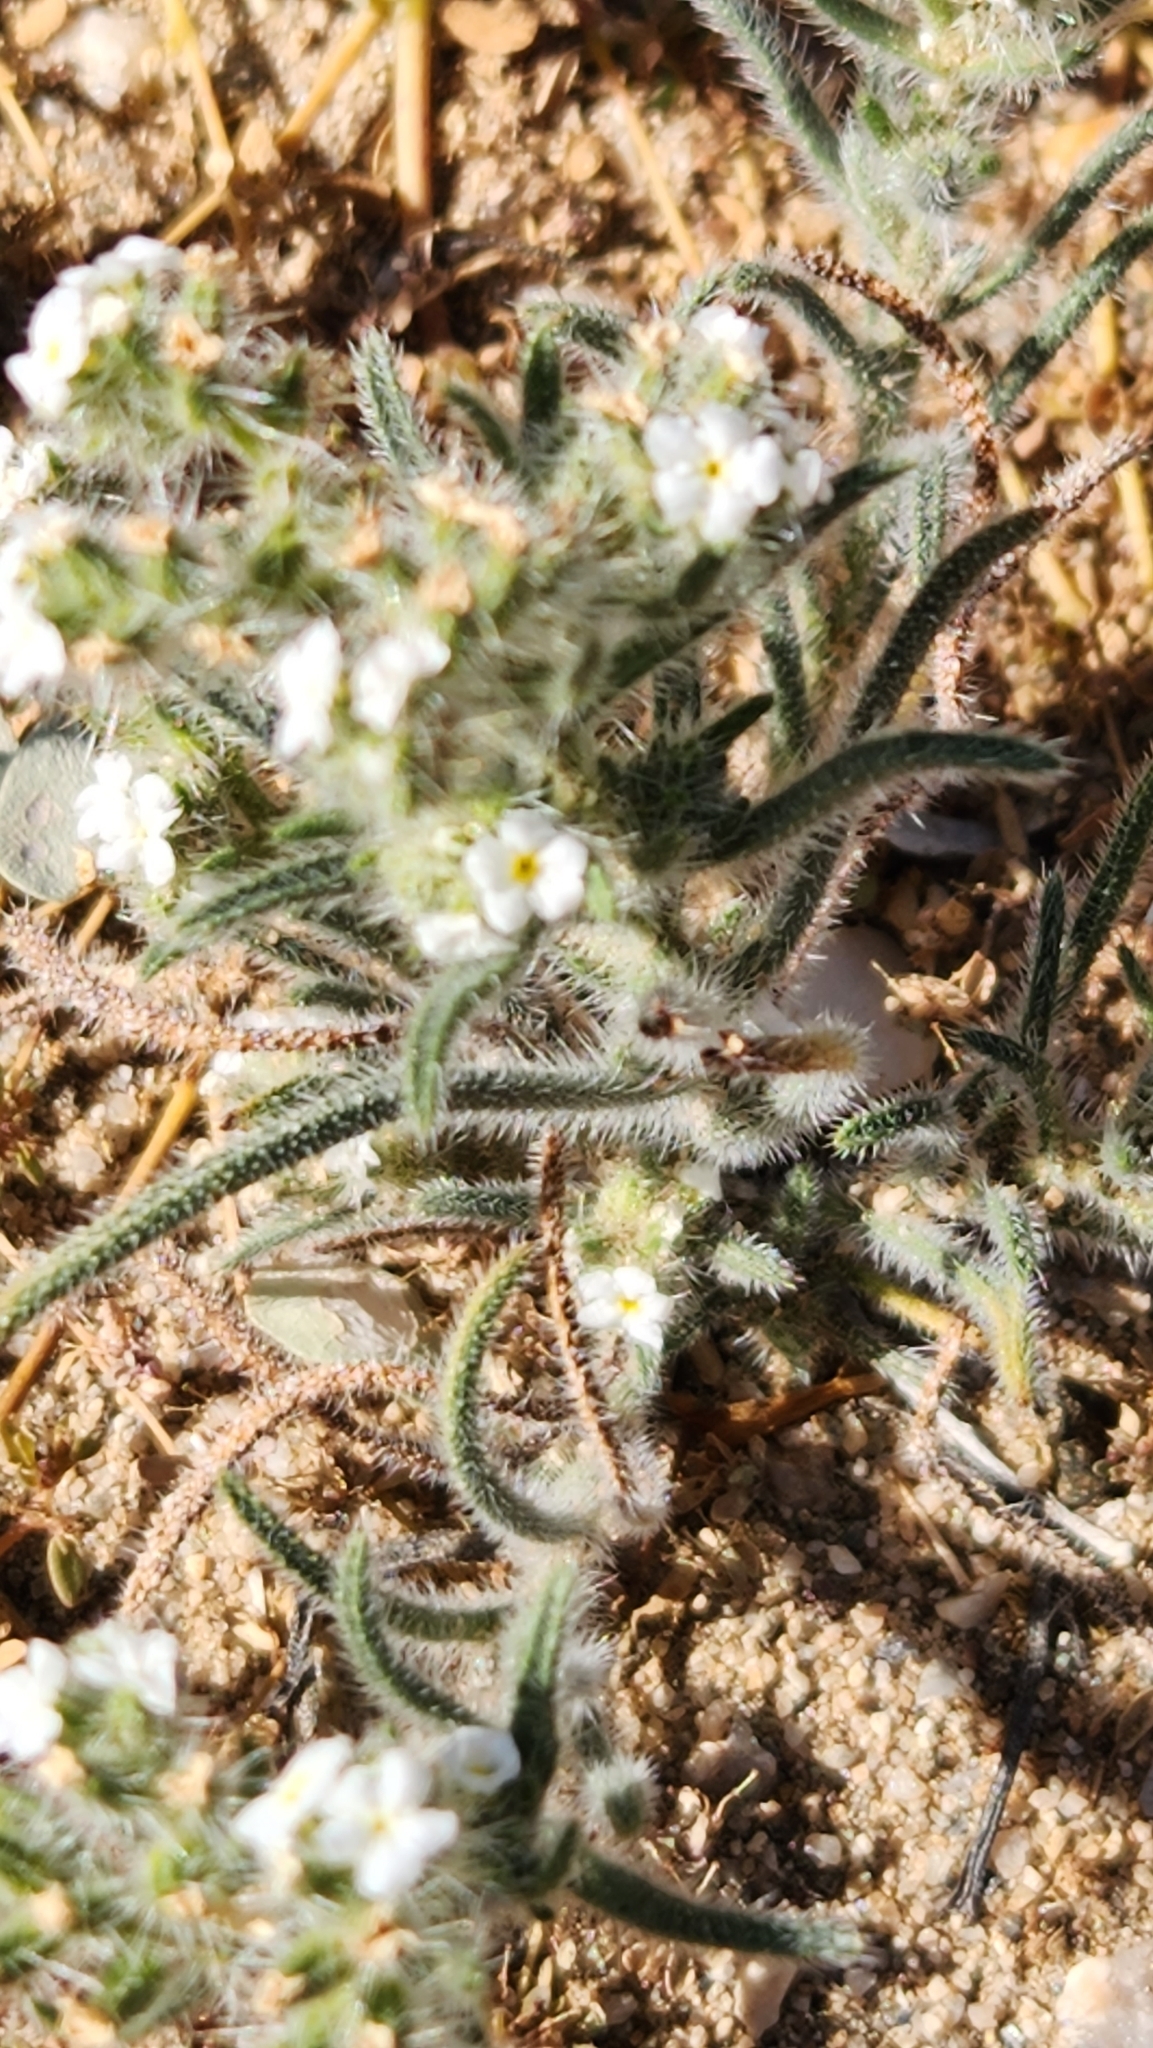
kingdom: Plantae
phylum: Tracheophyta
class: Magnoliopsida
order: Boraginales
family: Boraginaceae
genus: Johnstonella
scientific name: Johnstonella angustifolia
